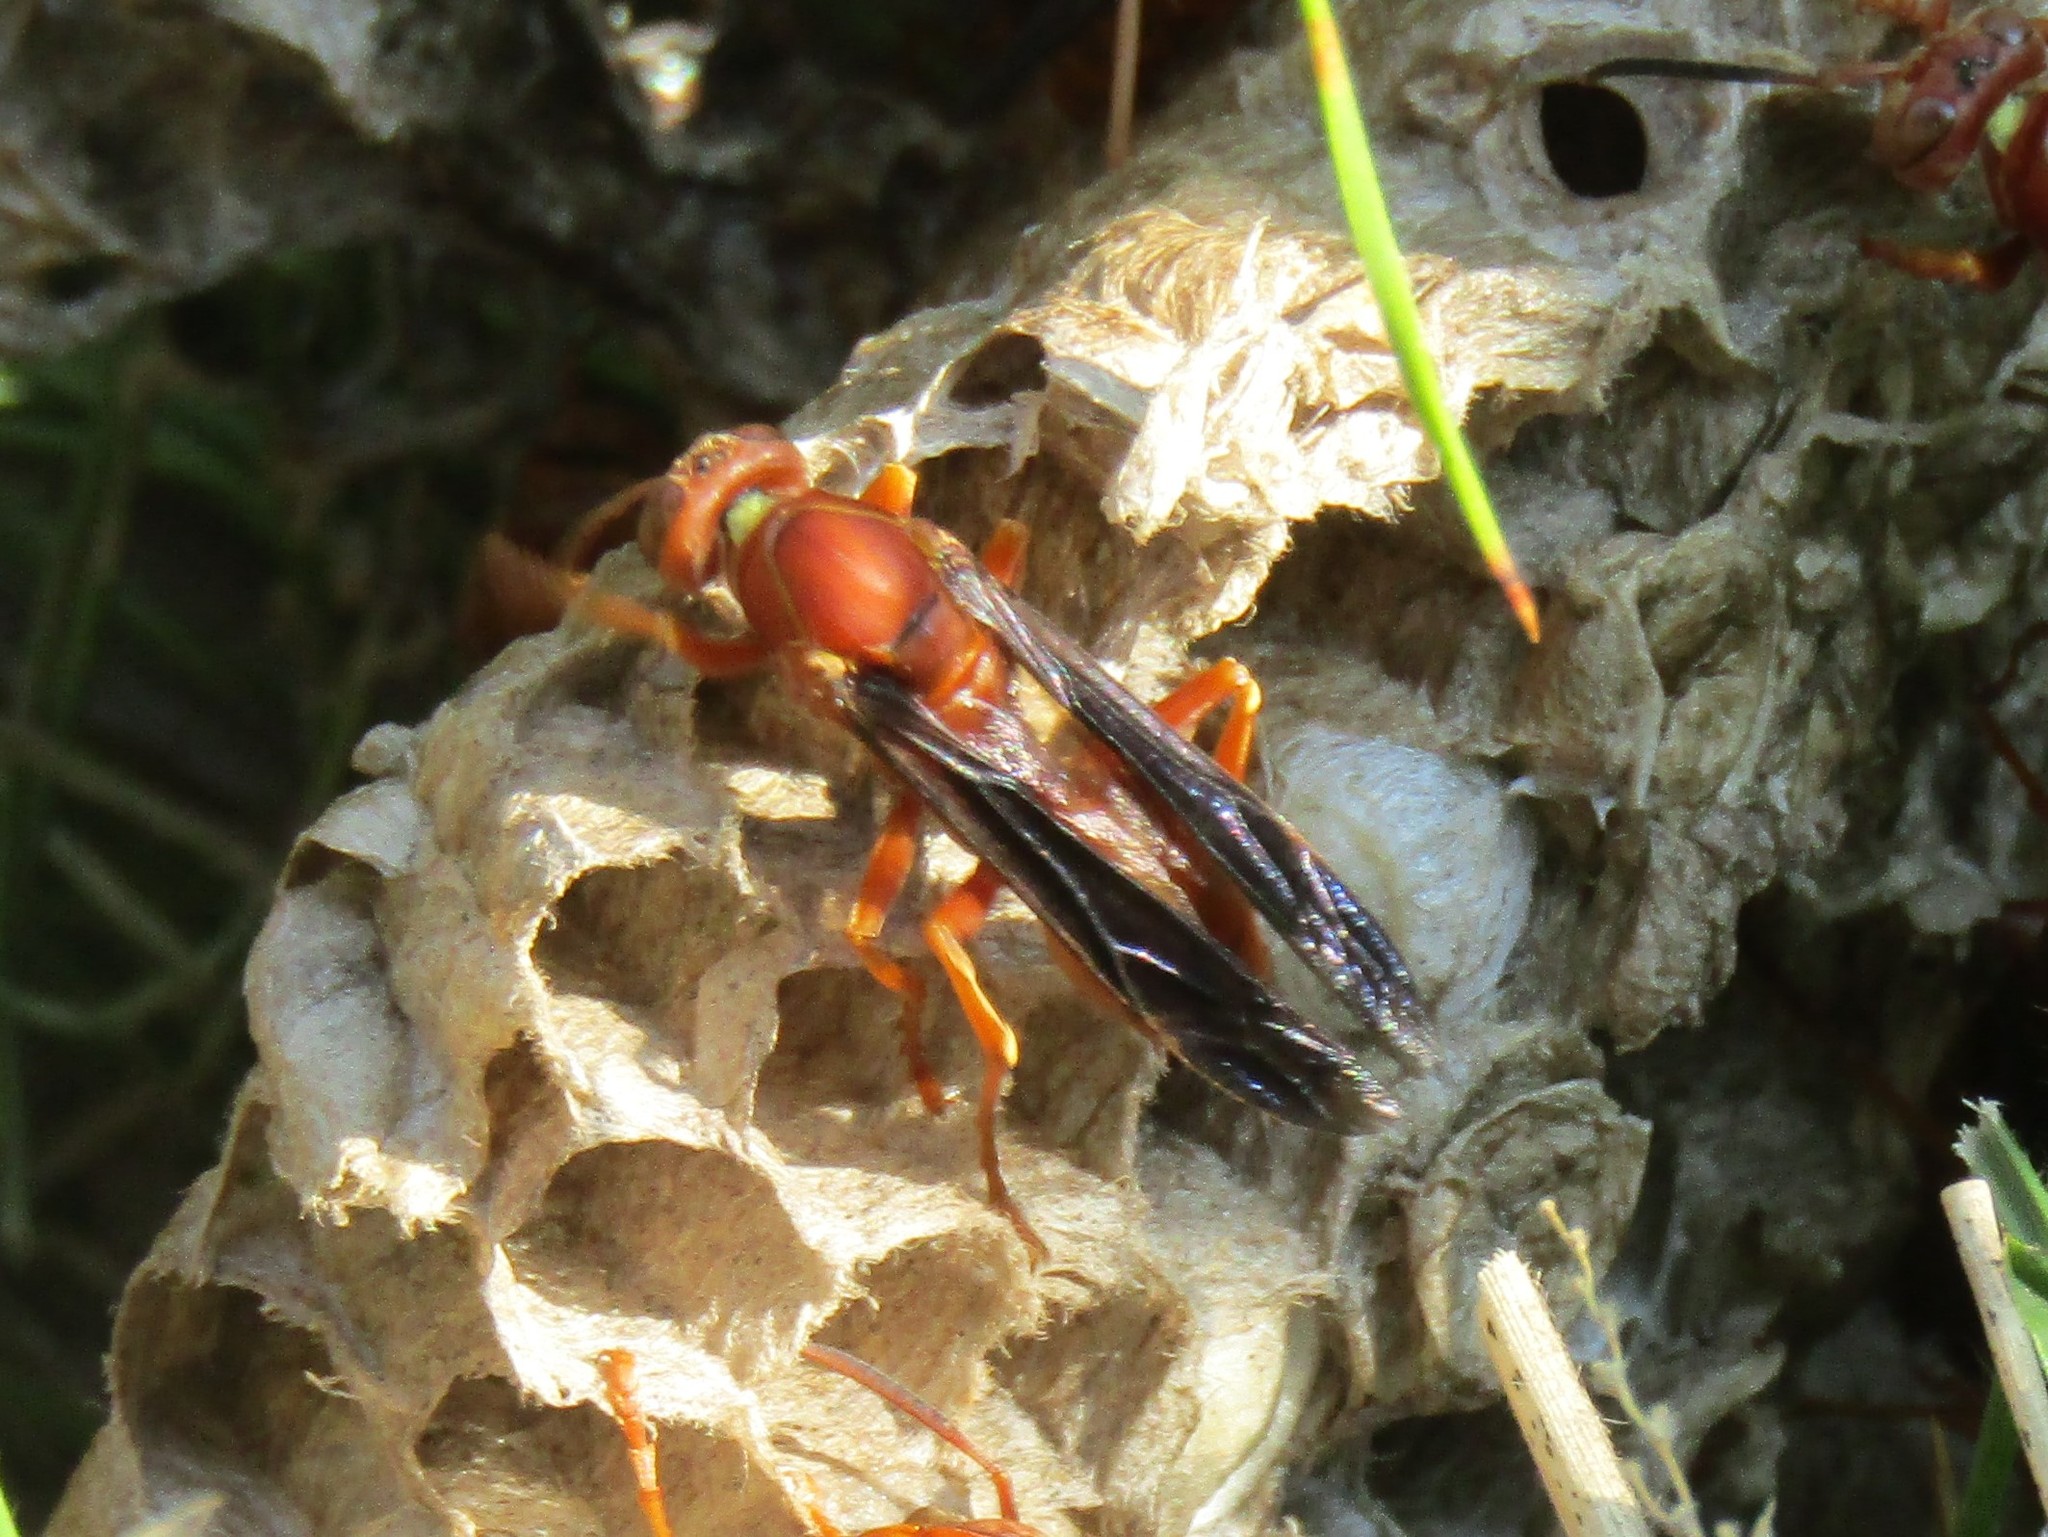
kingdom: Animalia
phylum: Arthropoda
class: Insecta
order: Hymenoptera
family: Vespidae
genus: Fuscopolistes
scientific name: Fuscopolistes
